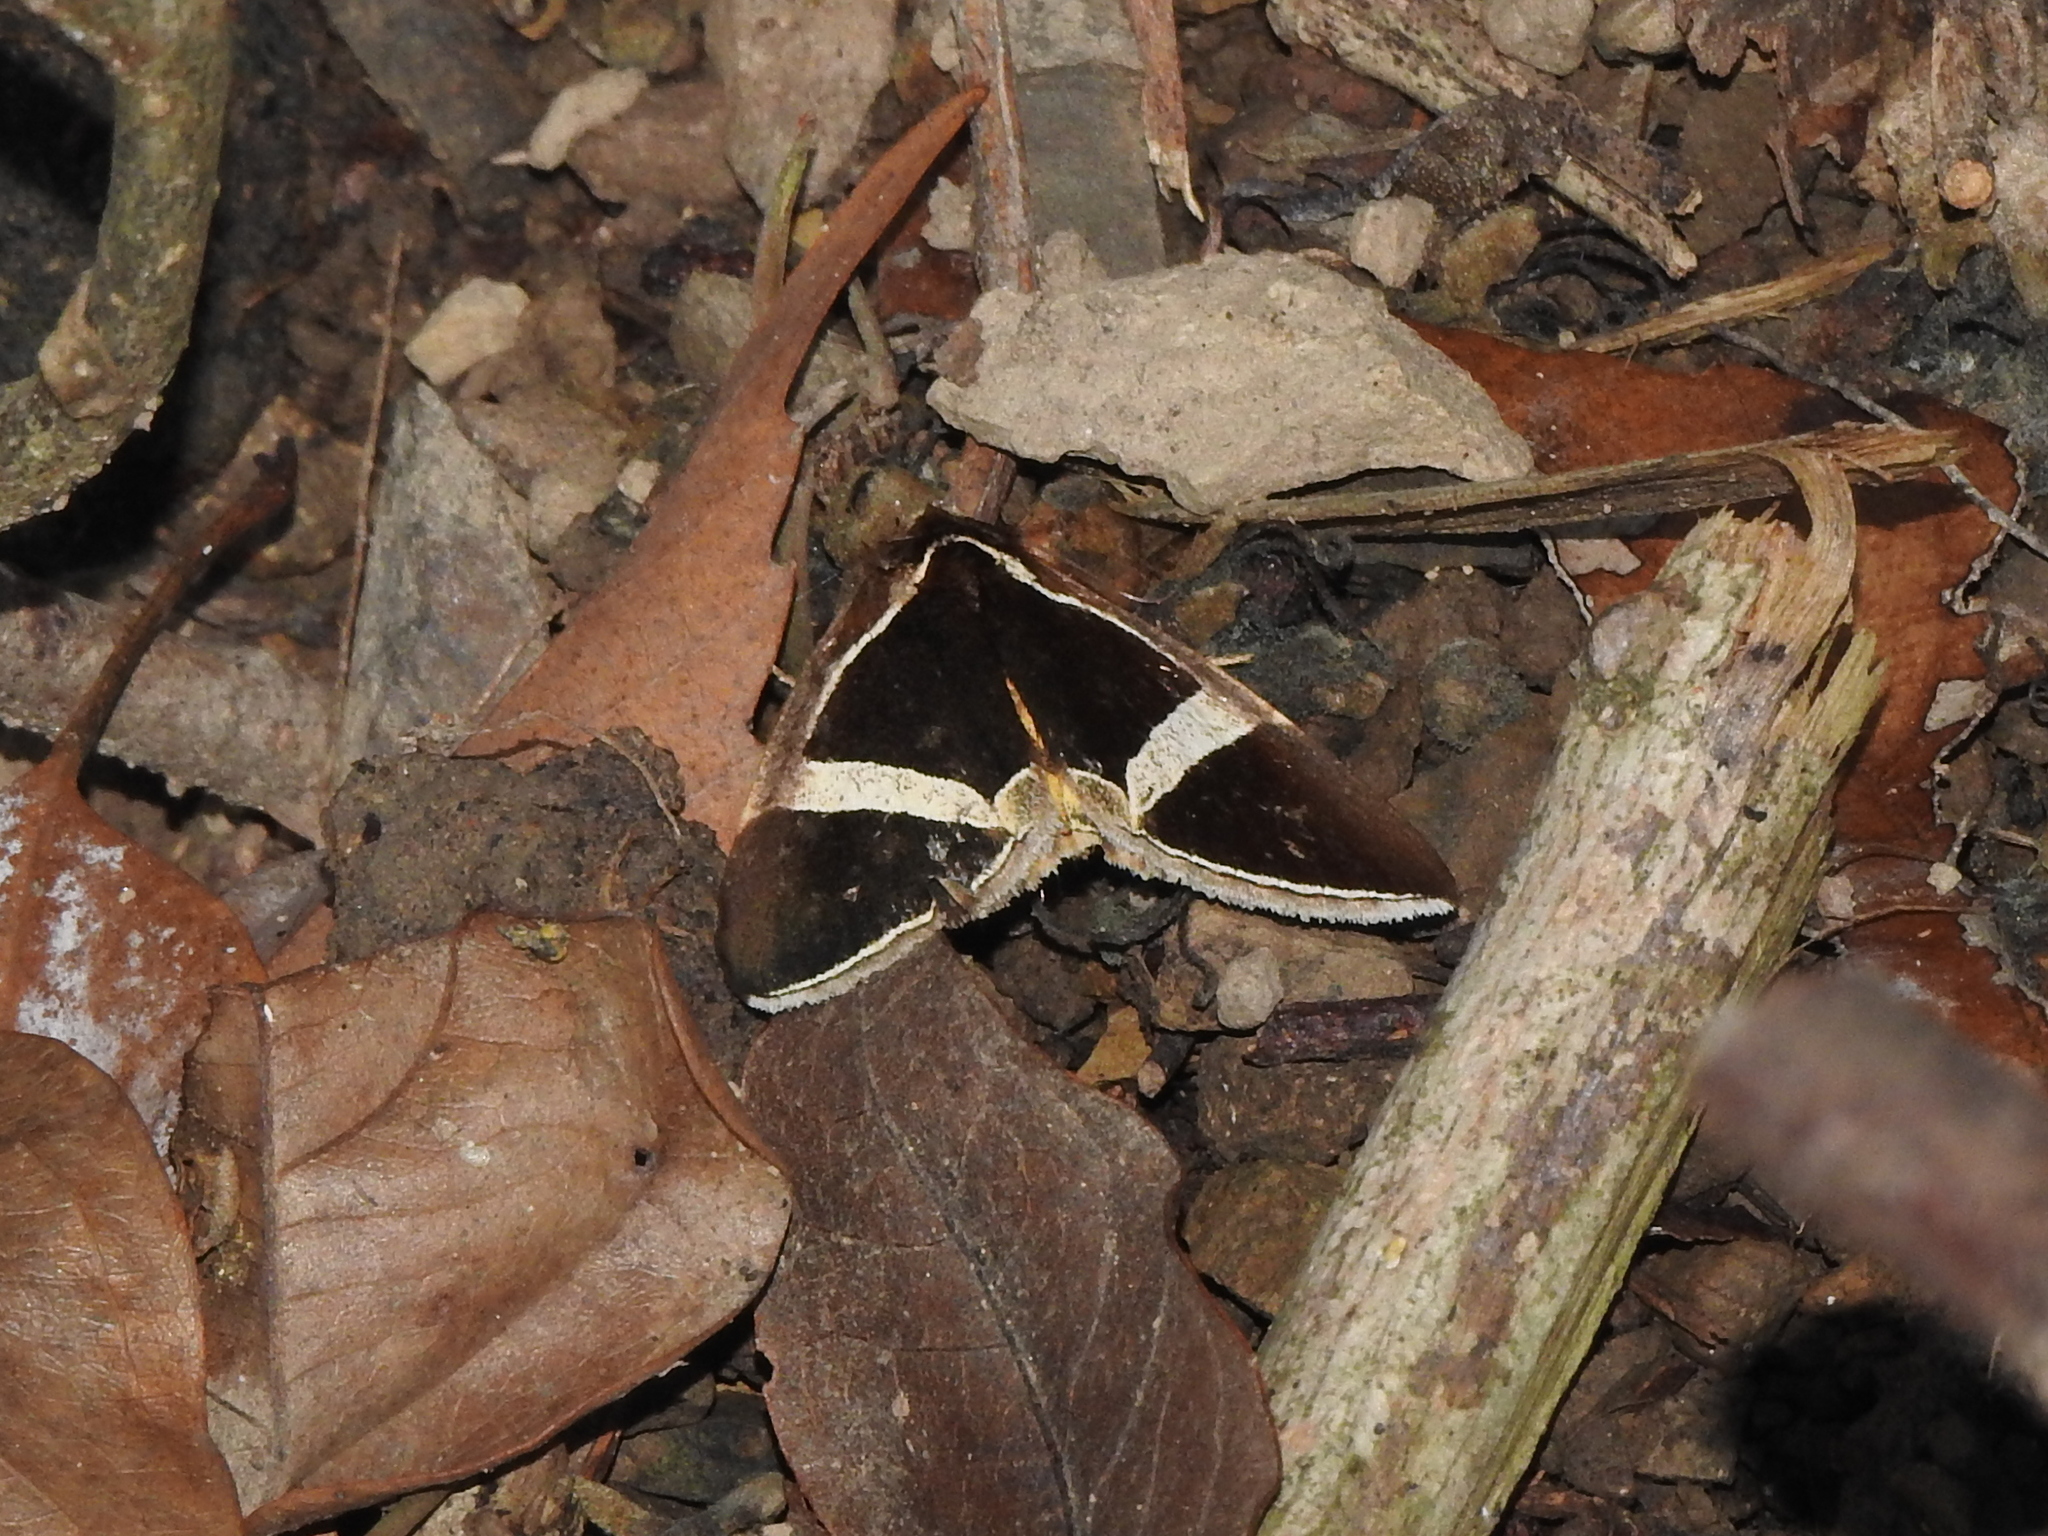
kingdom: Animalia
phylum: Arthropoda
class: Insecta
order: Lepidoptera
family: Erebidae
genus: Fodina
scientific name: Fodina kosemponis
